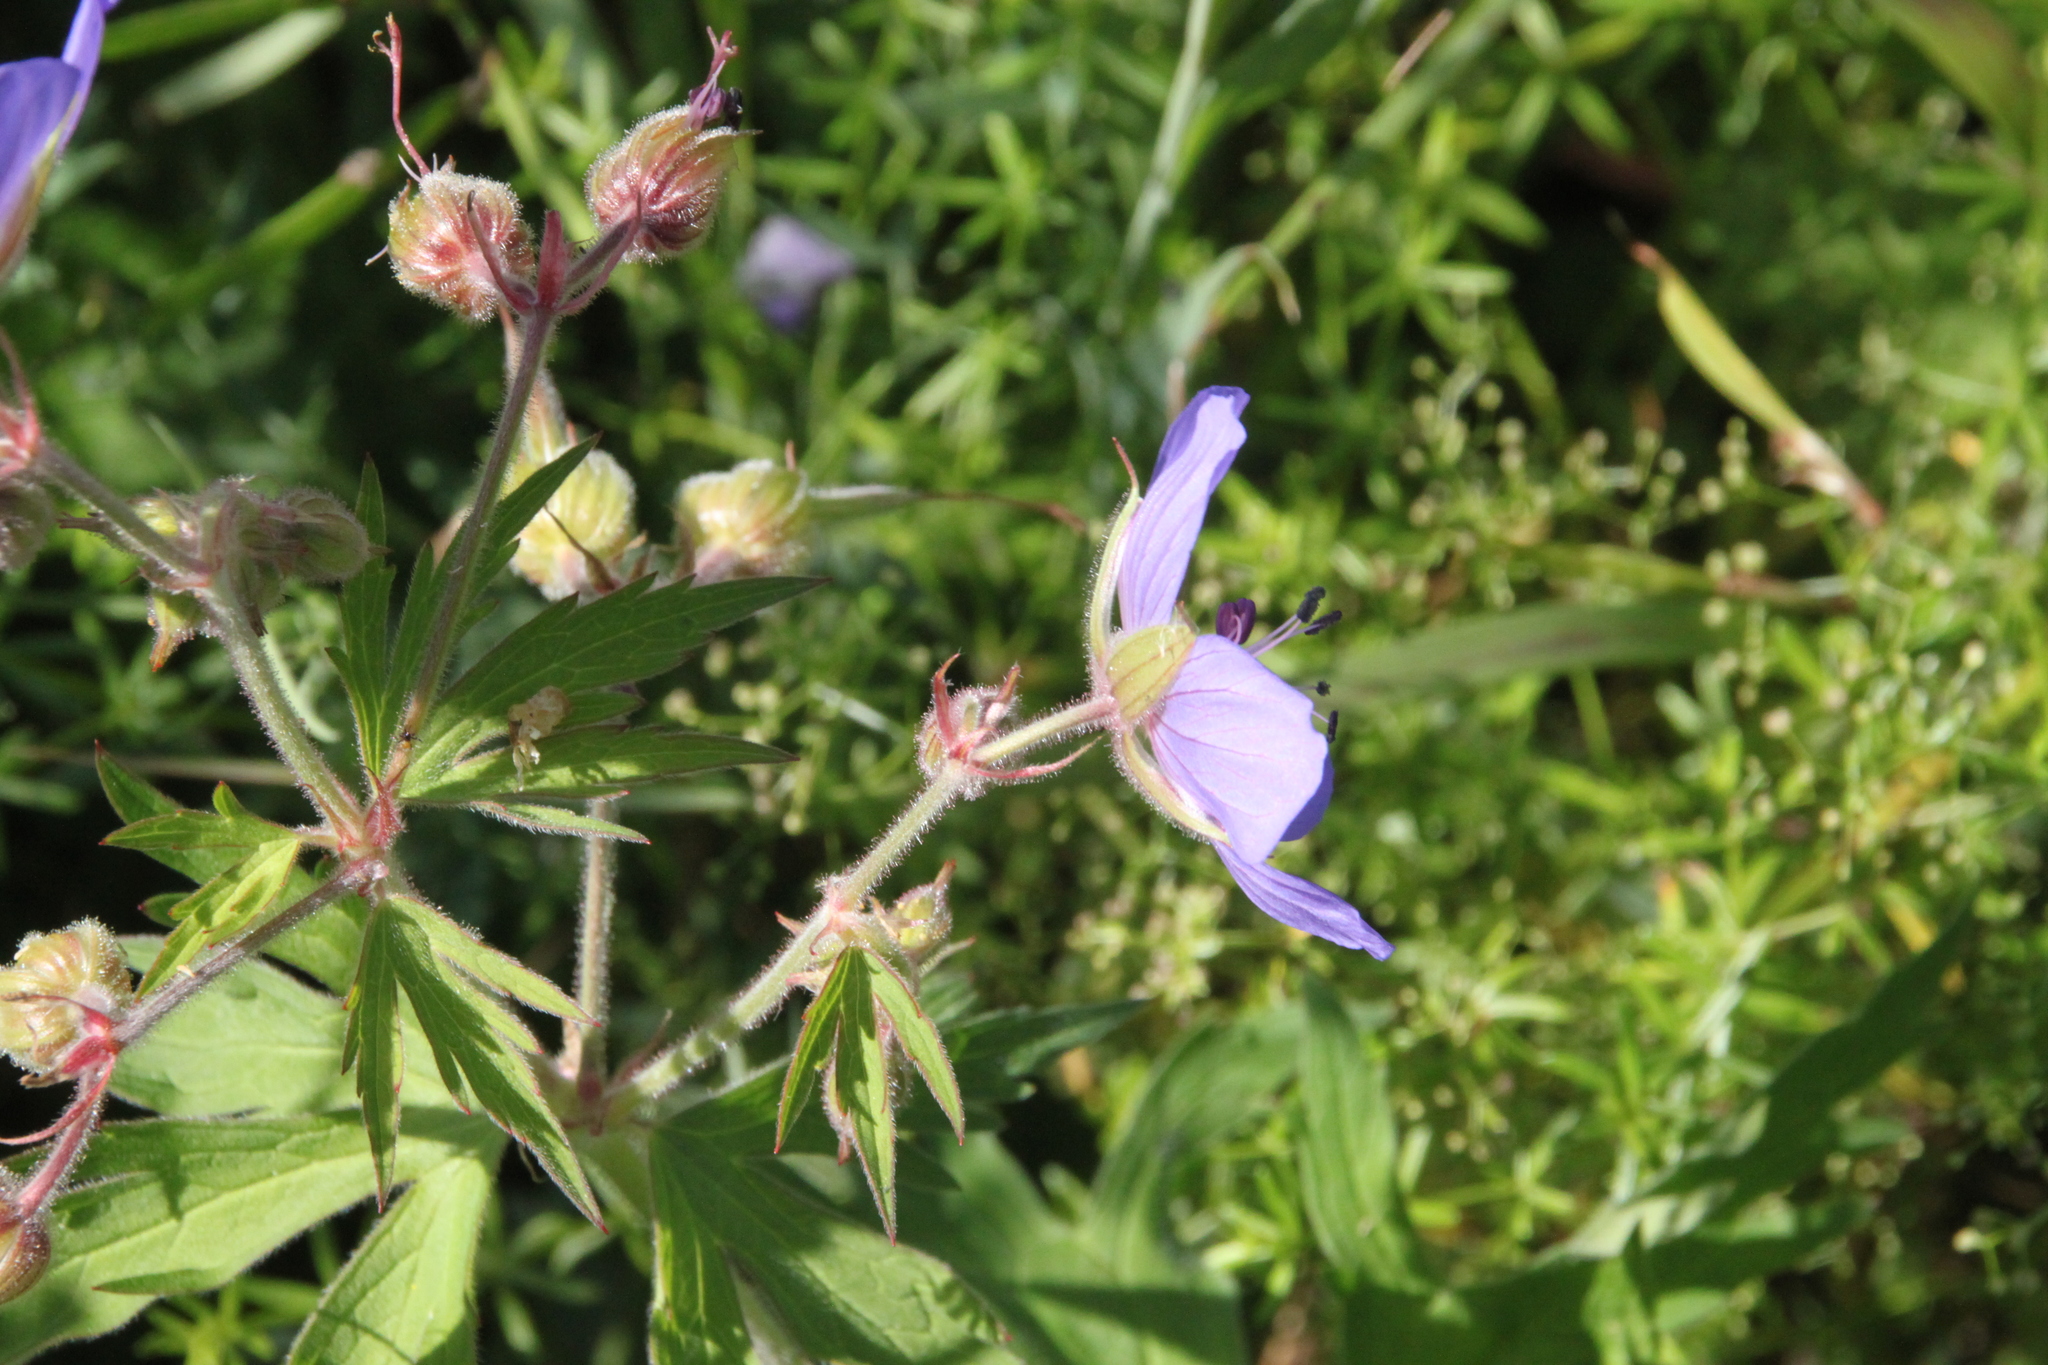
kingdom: Plantae
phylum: Tracheophyta
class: Magnoliopsida
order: Geraniales
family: Geraniaceae
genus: Geranium
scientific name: Geranium pratense
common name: Meadow crane's-bill
